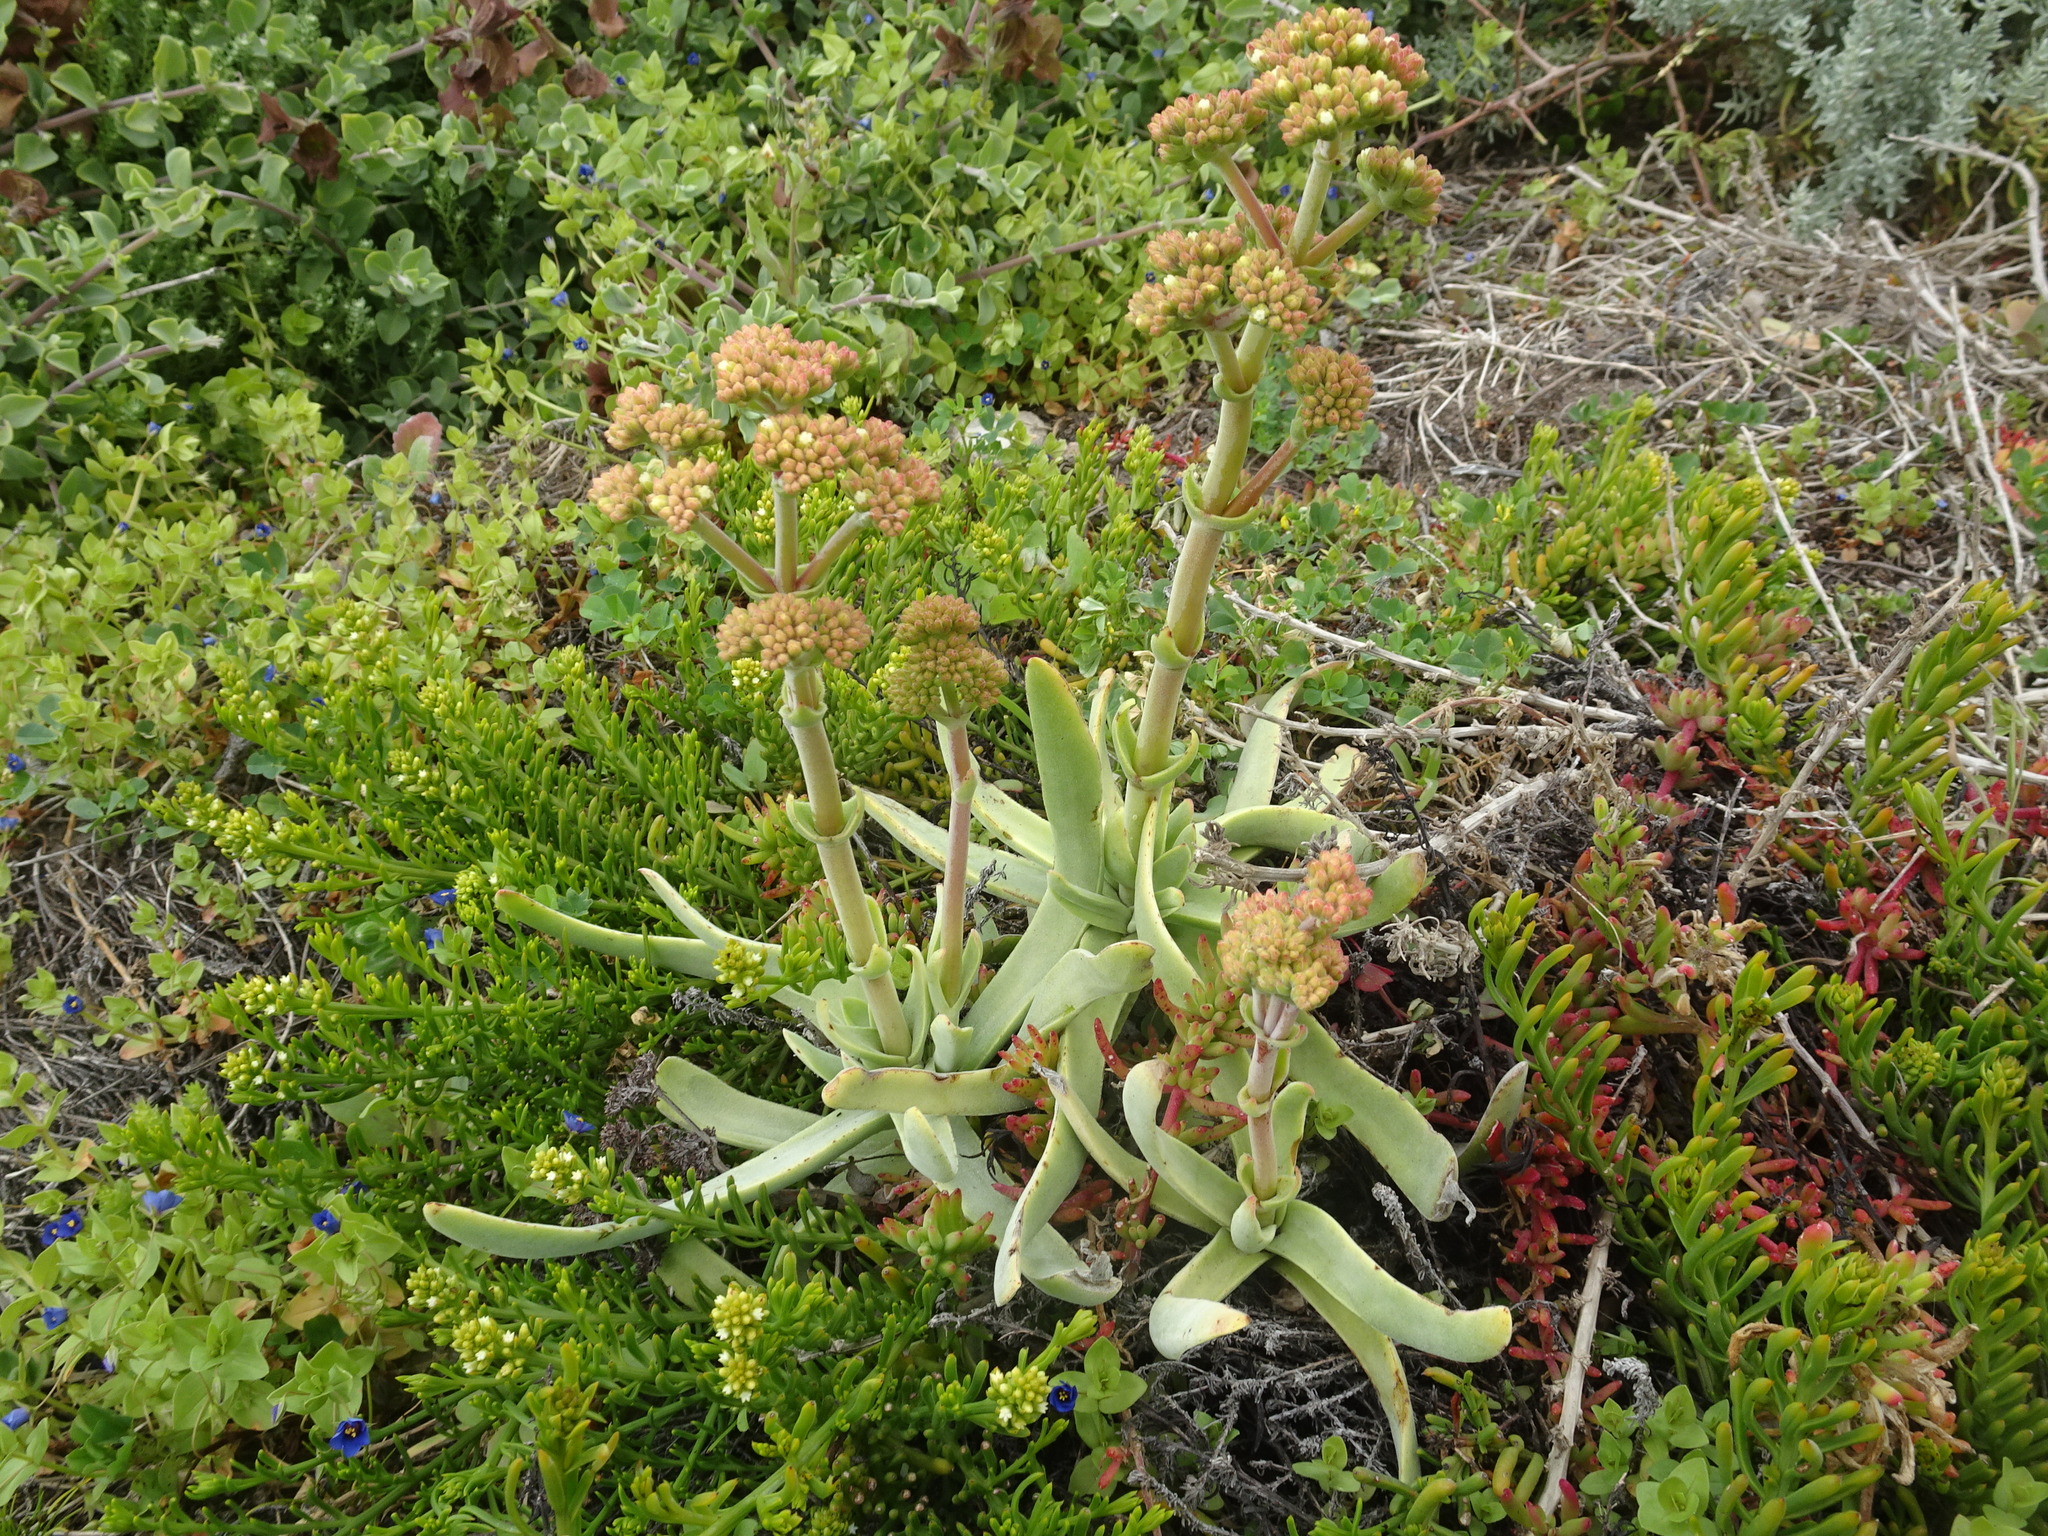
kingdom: Plantae
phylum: Tracheophyta
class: Magnoliopsida
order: Saxifragales
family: Crassulaceae
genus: Crassula
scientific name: Crassula nudicaulis
